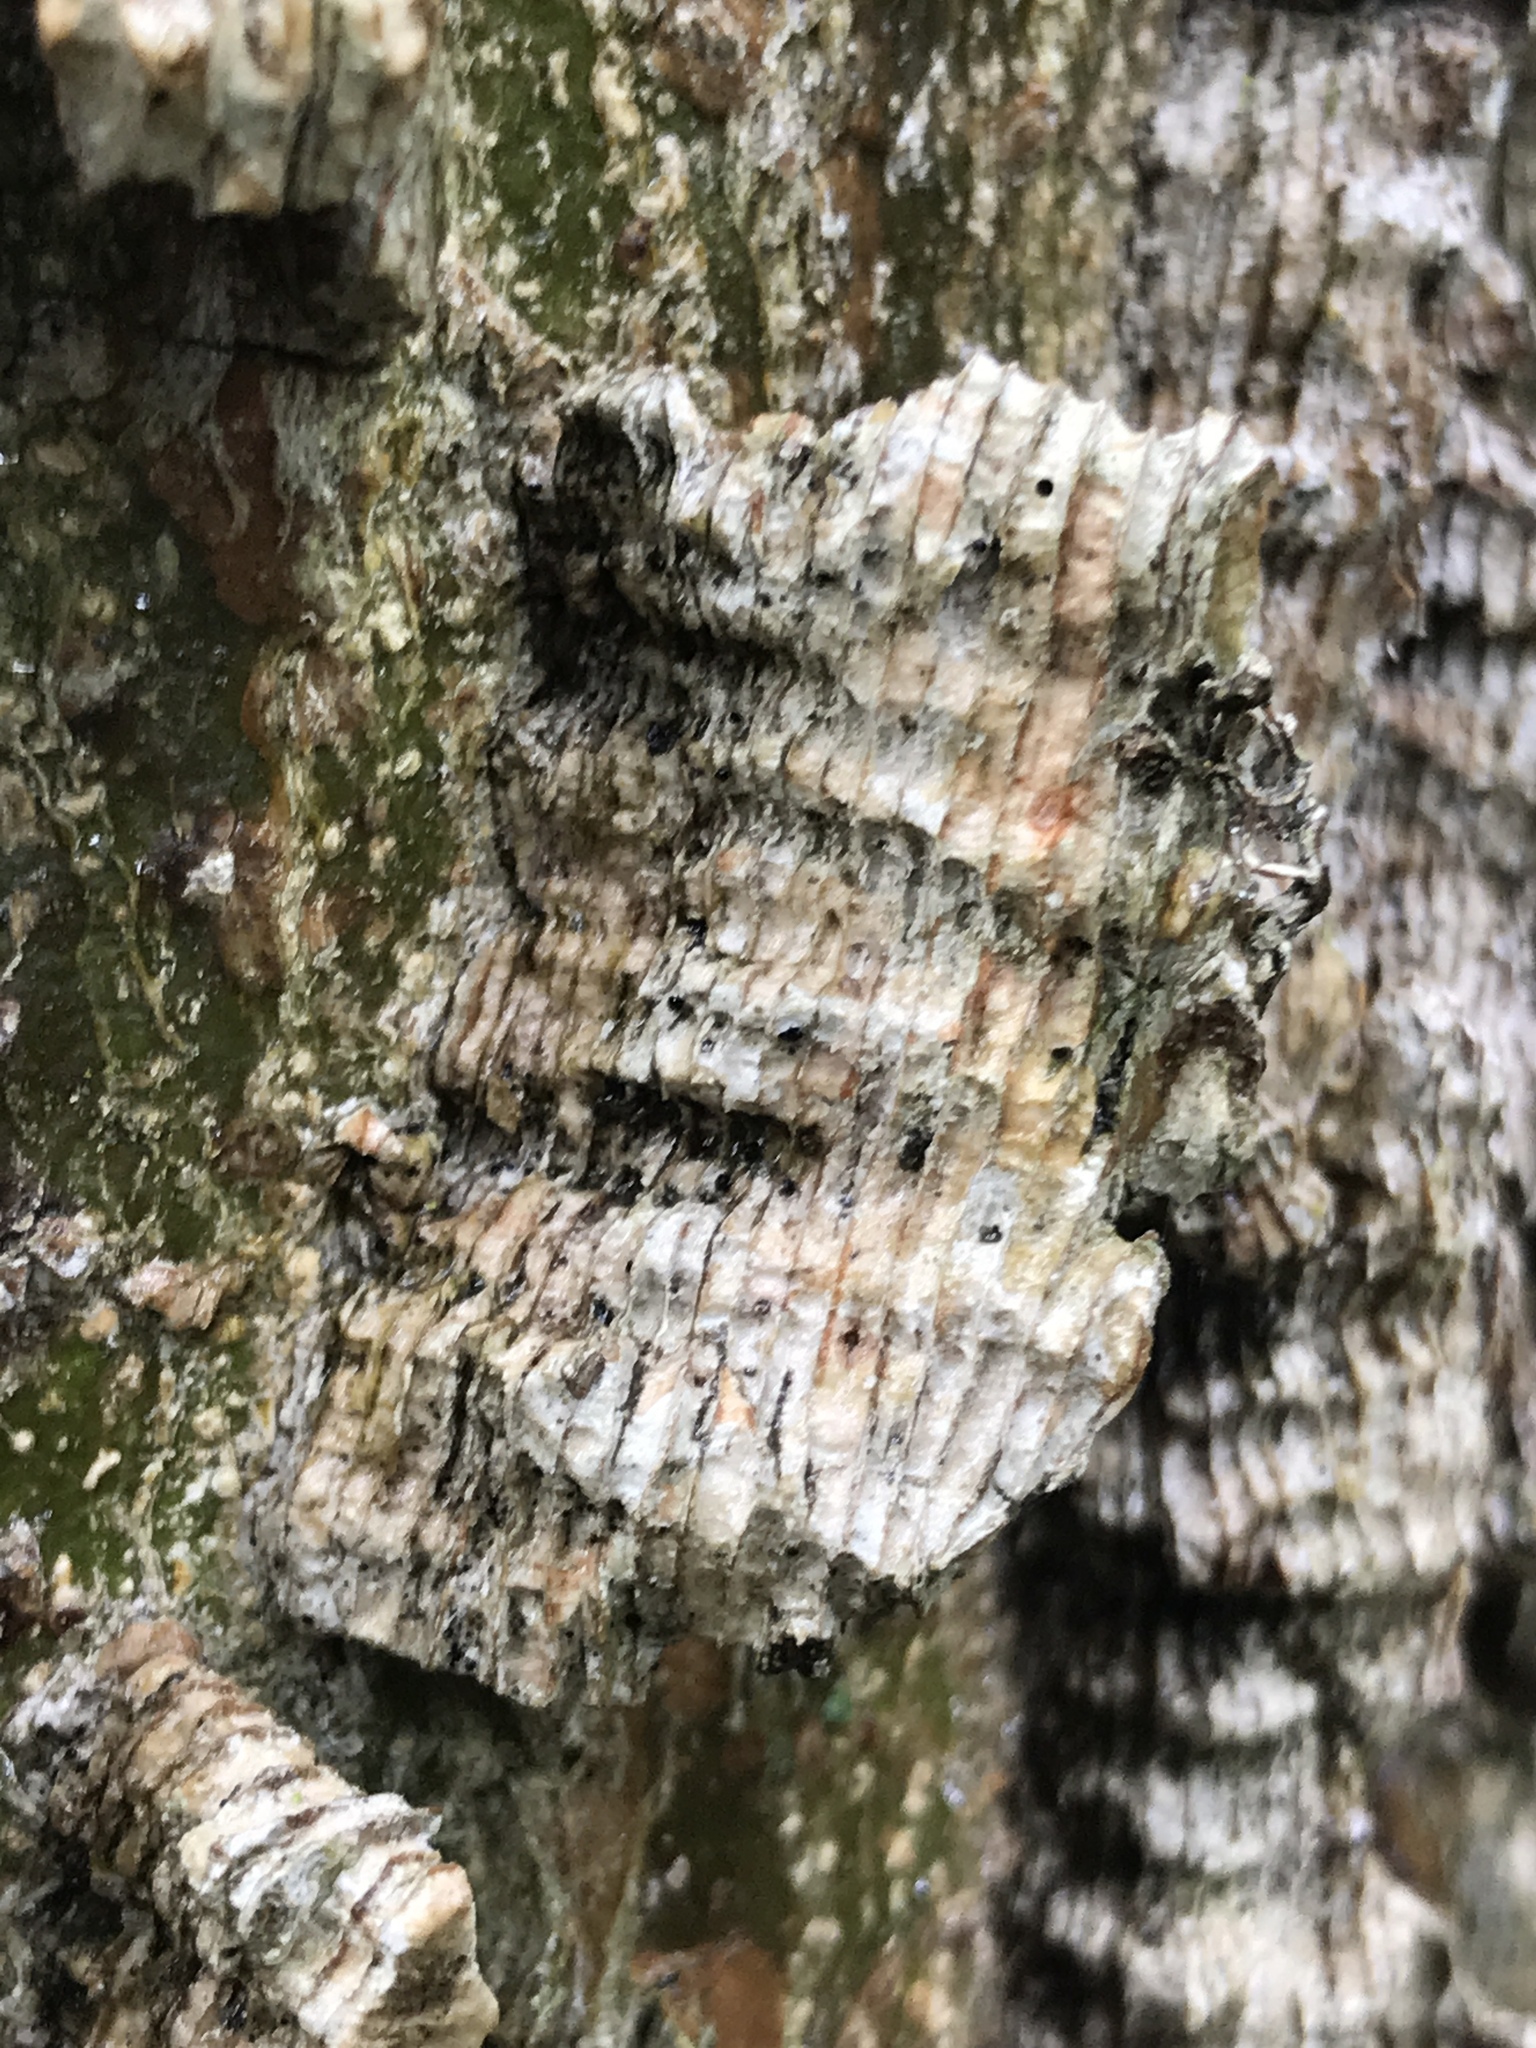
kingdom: Plantae
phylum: Tracheophyta
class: Magnoliopsida
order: Rosales
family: Cannabaceae
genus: Celtis
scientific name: Celtis occidentalis
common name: Common hackberry
